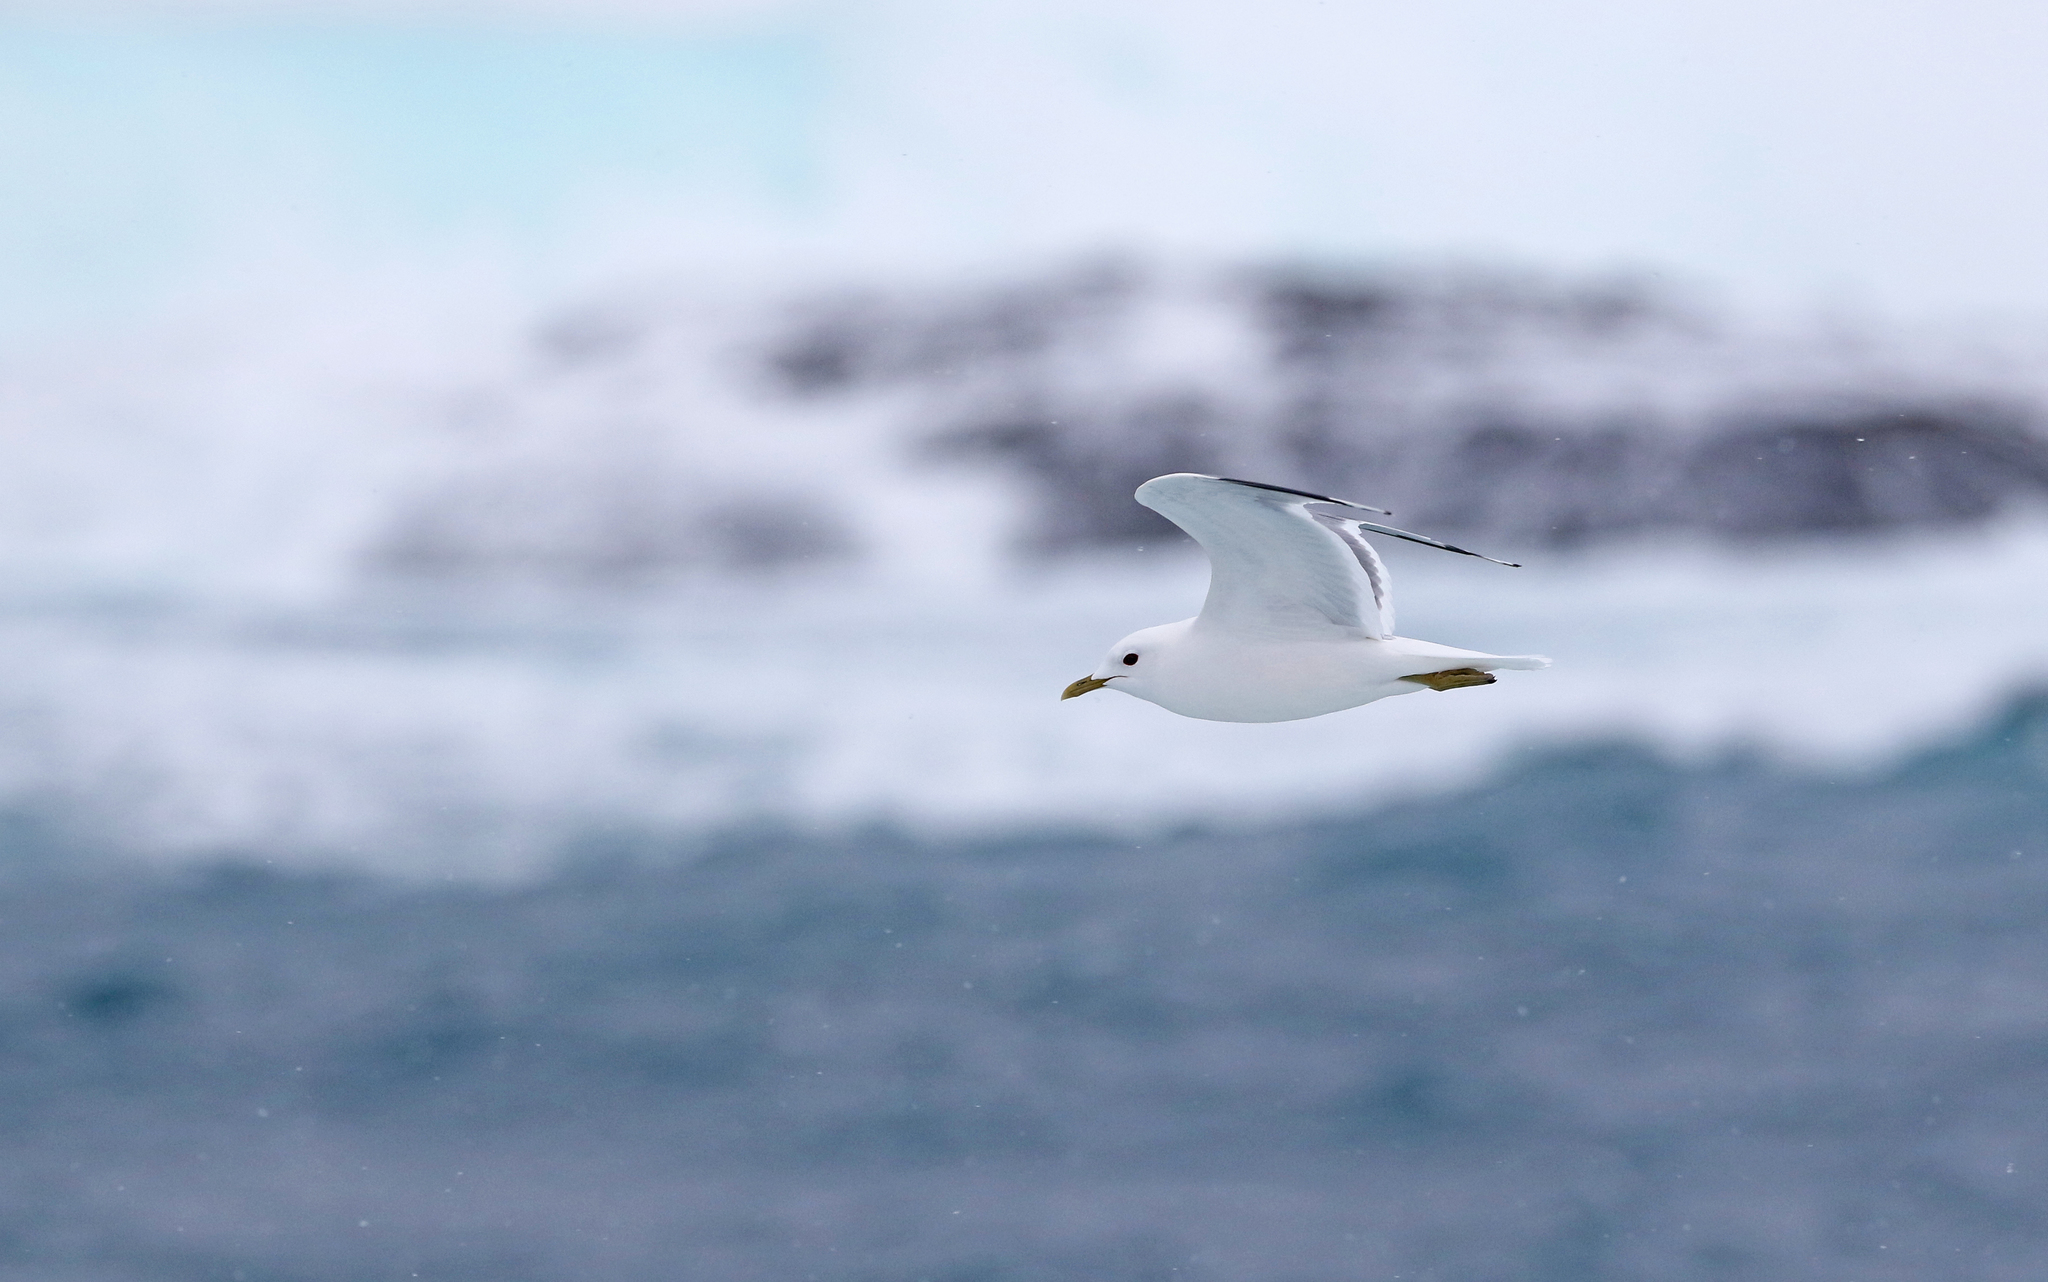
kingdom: Animalia
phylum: Chordata
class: Aves
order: Charadriiformes
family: Laridae
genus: Larus
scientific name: Larus canus
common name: Mew gull
